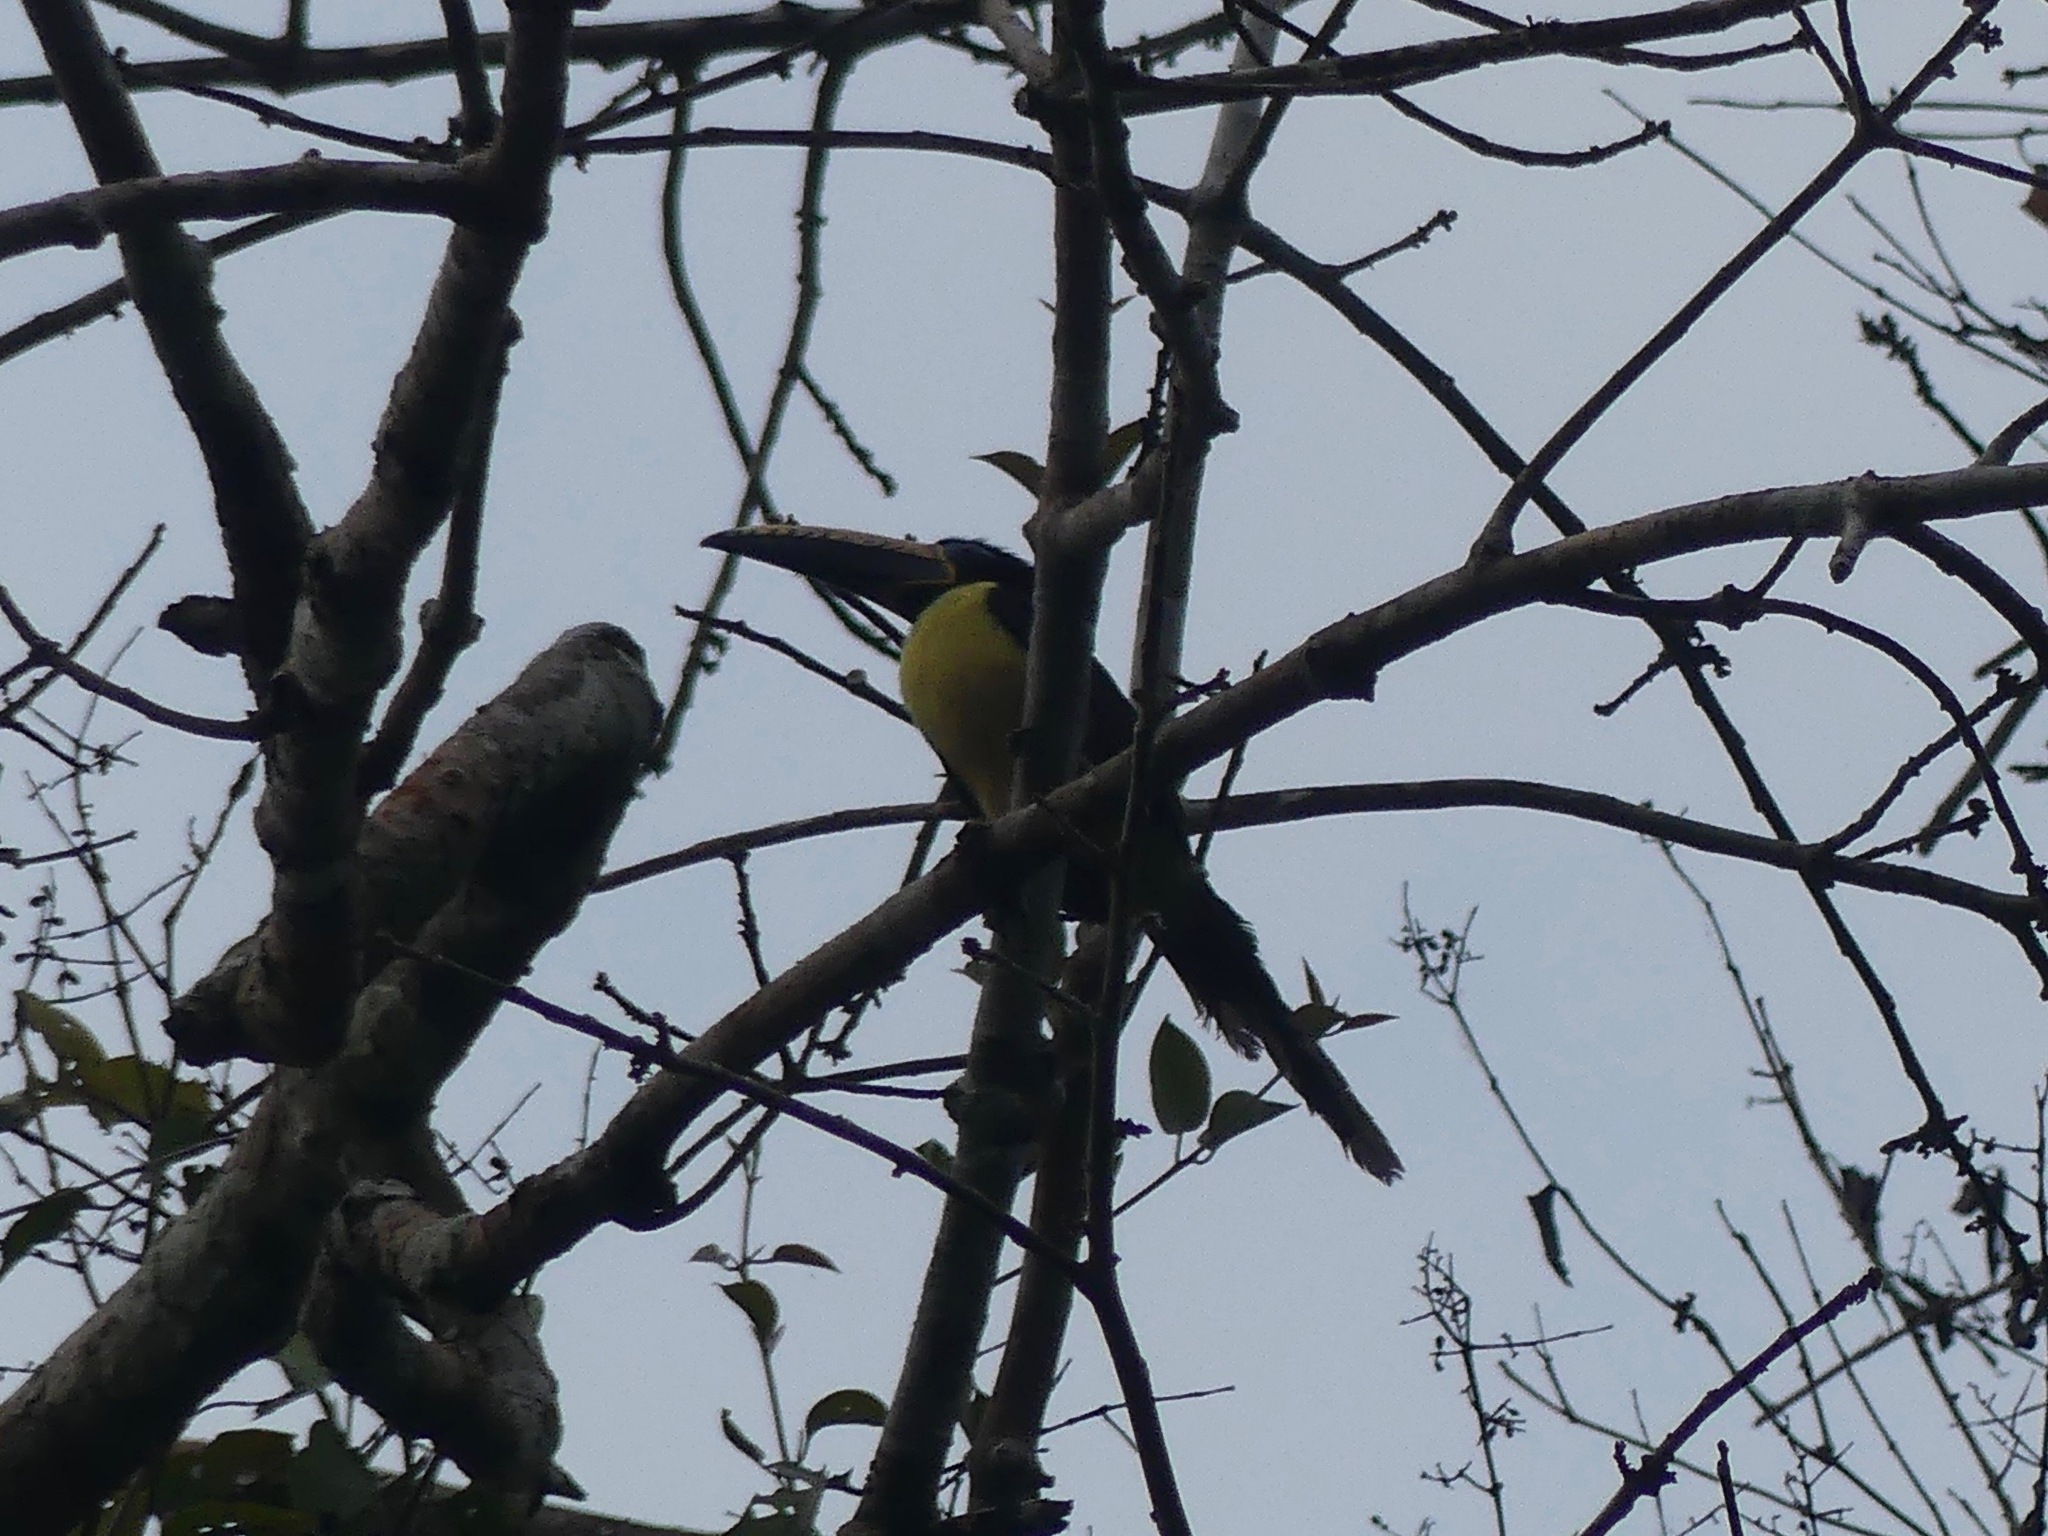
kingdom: Animalia
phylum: Chordata
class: Aves
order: Piciformes
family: Ramphastidae
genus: Pteroglossus
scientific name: Pteroglossus inscriptus
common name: Lettered aracari
